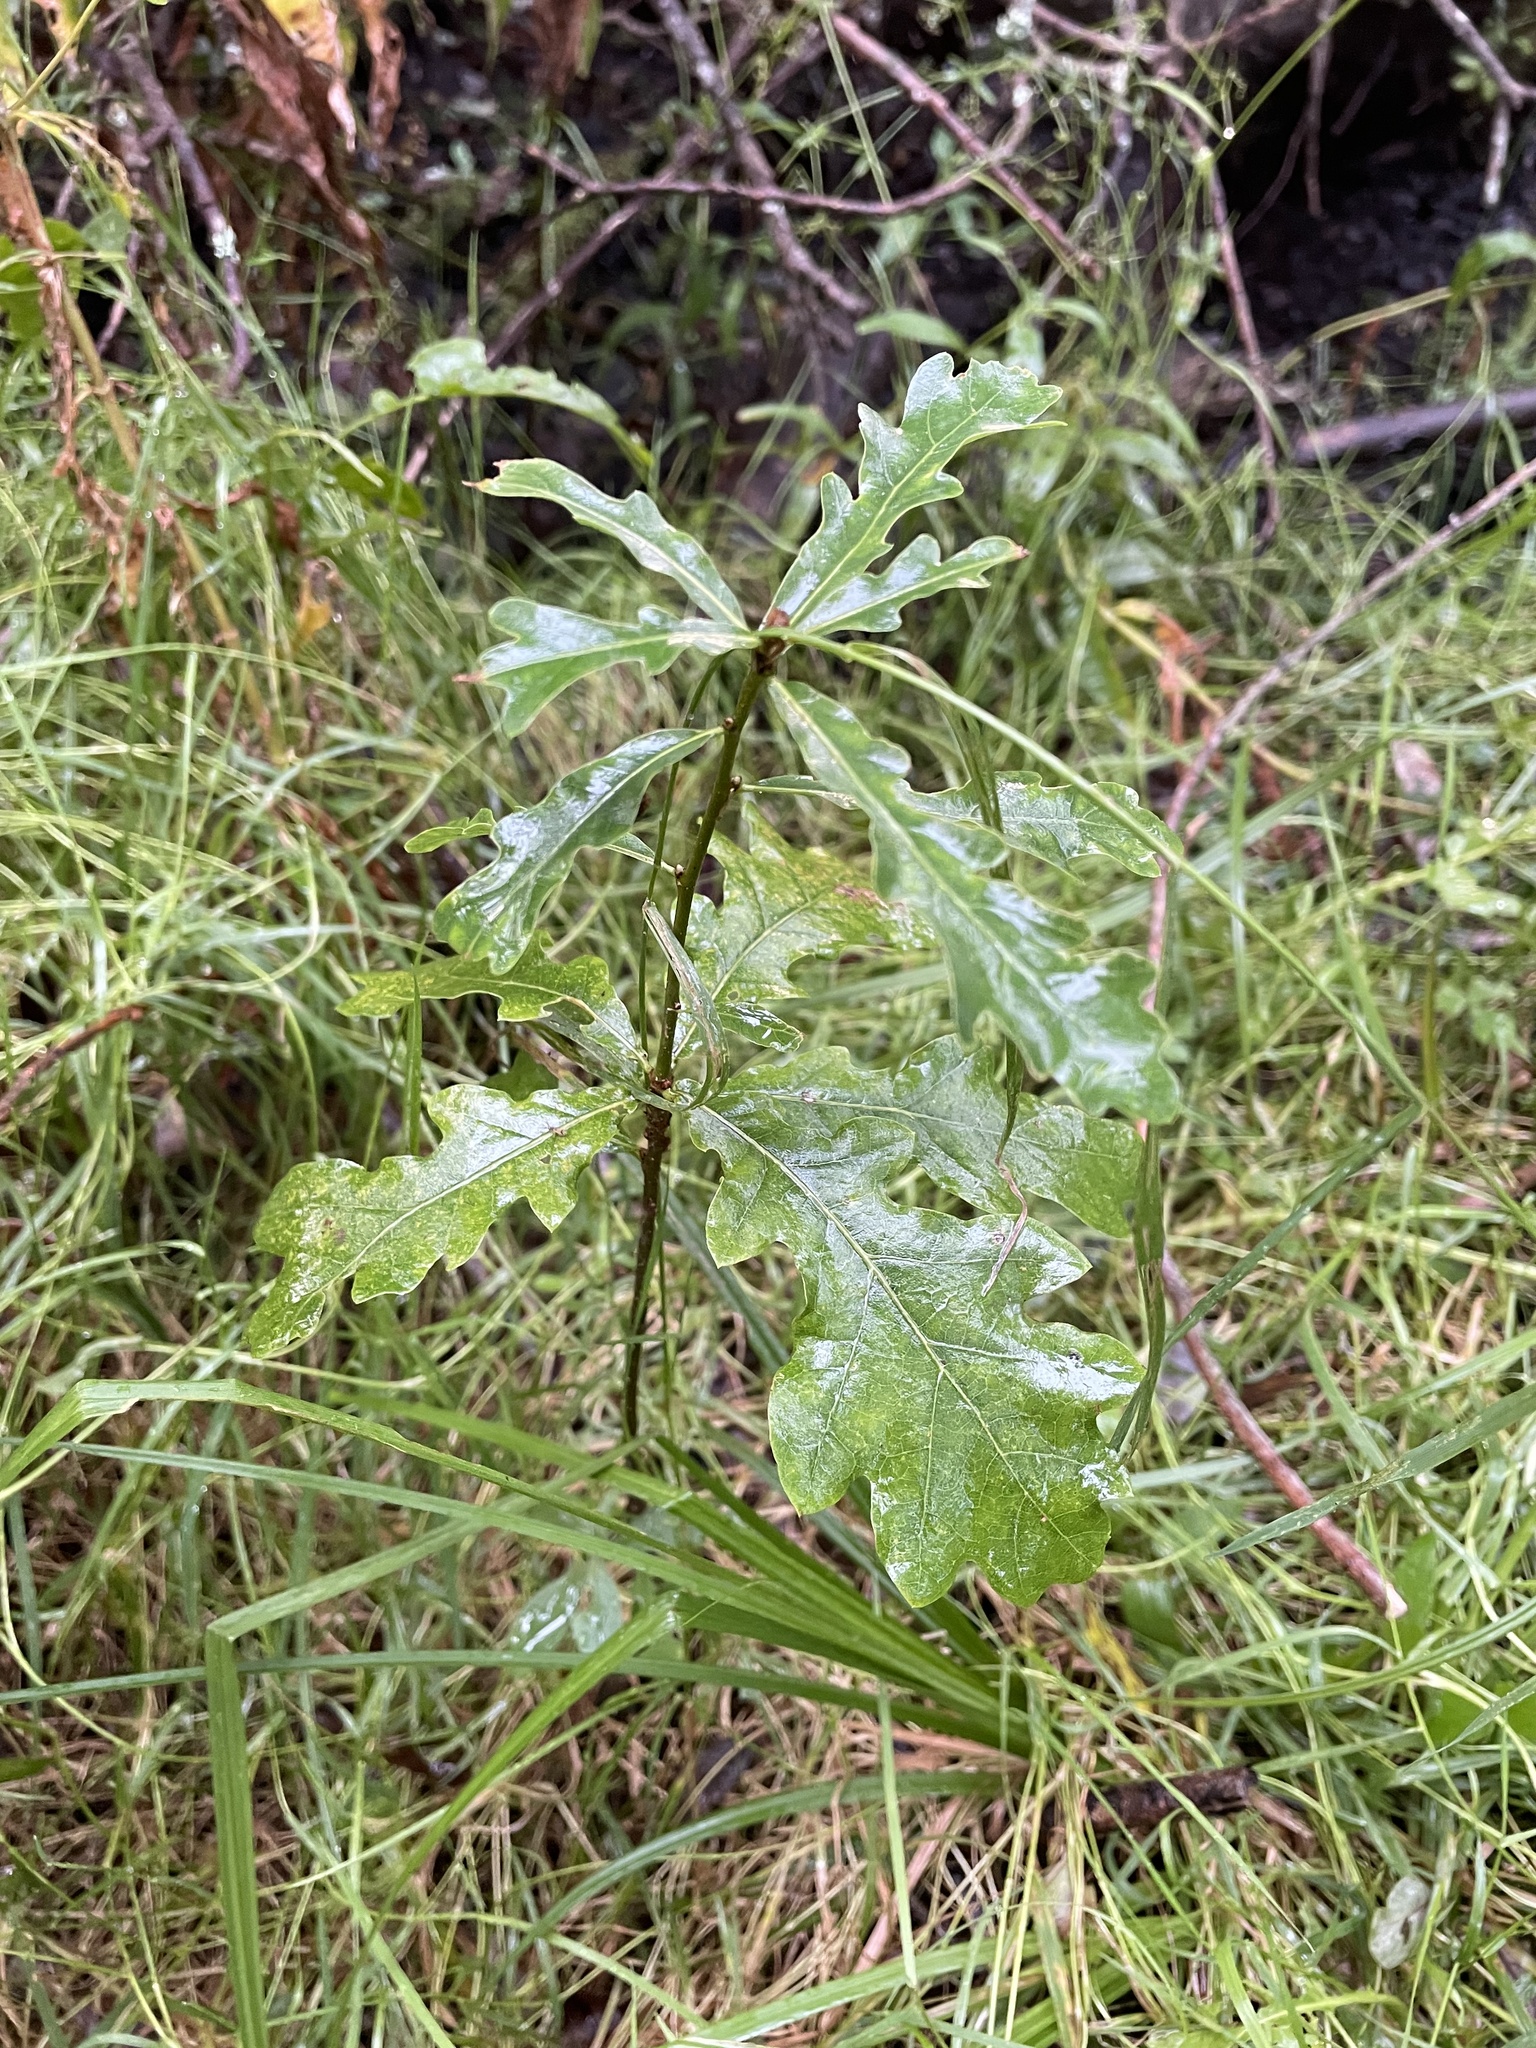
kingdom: Plantae
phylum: Tracheophyta
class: Magnoliopsida
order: Fagales
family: Fagaceae
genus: Quercus
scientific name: Quercus robur
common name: Pedunculate oak
